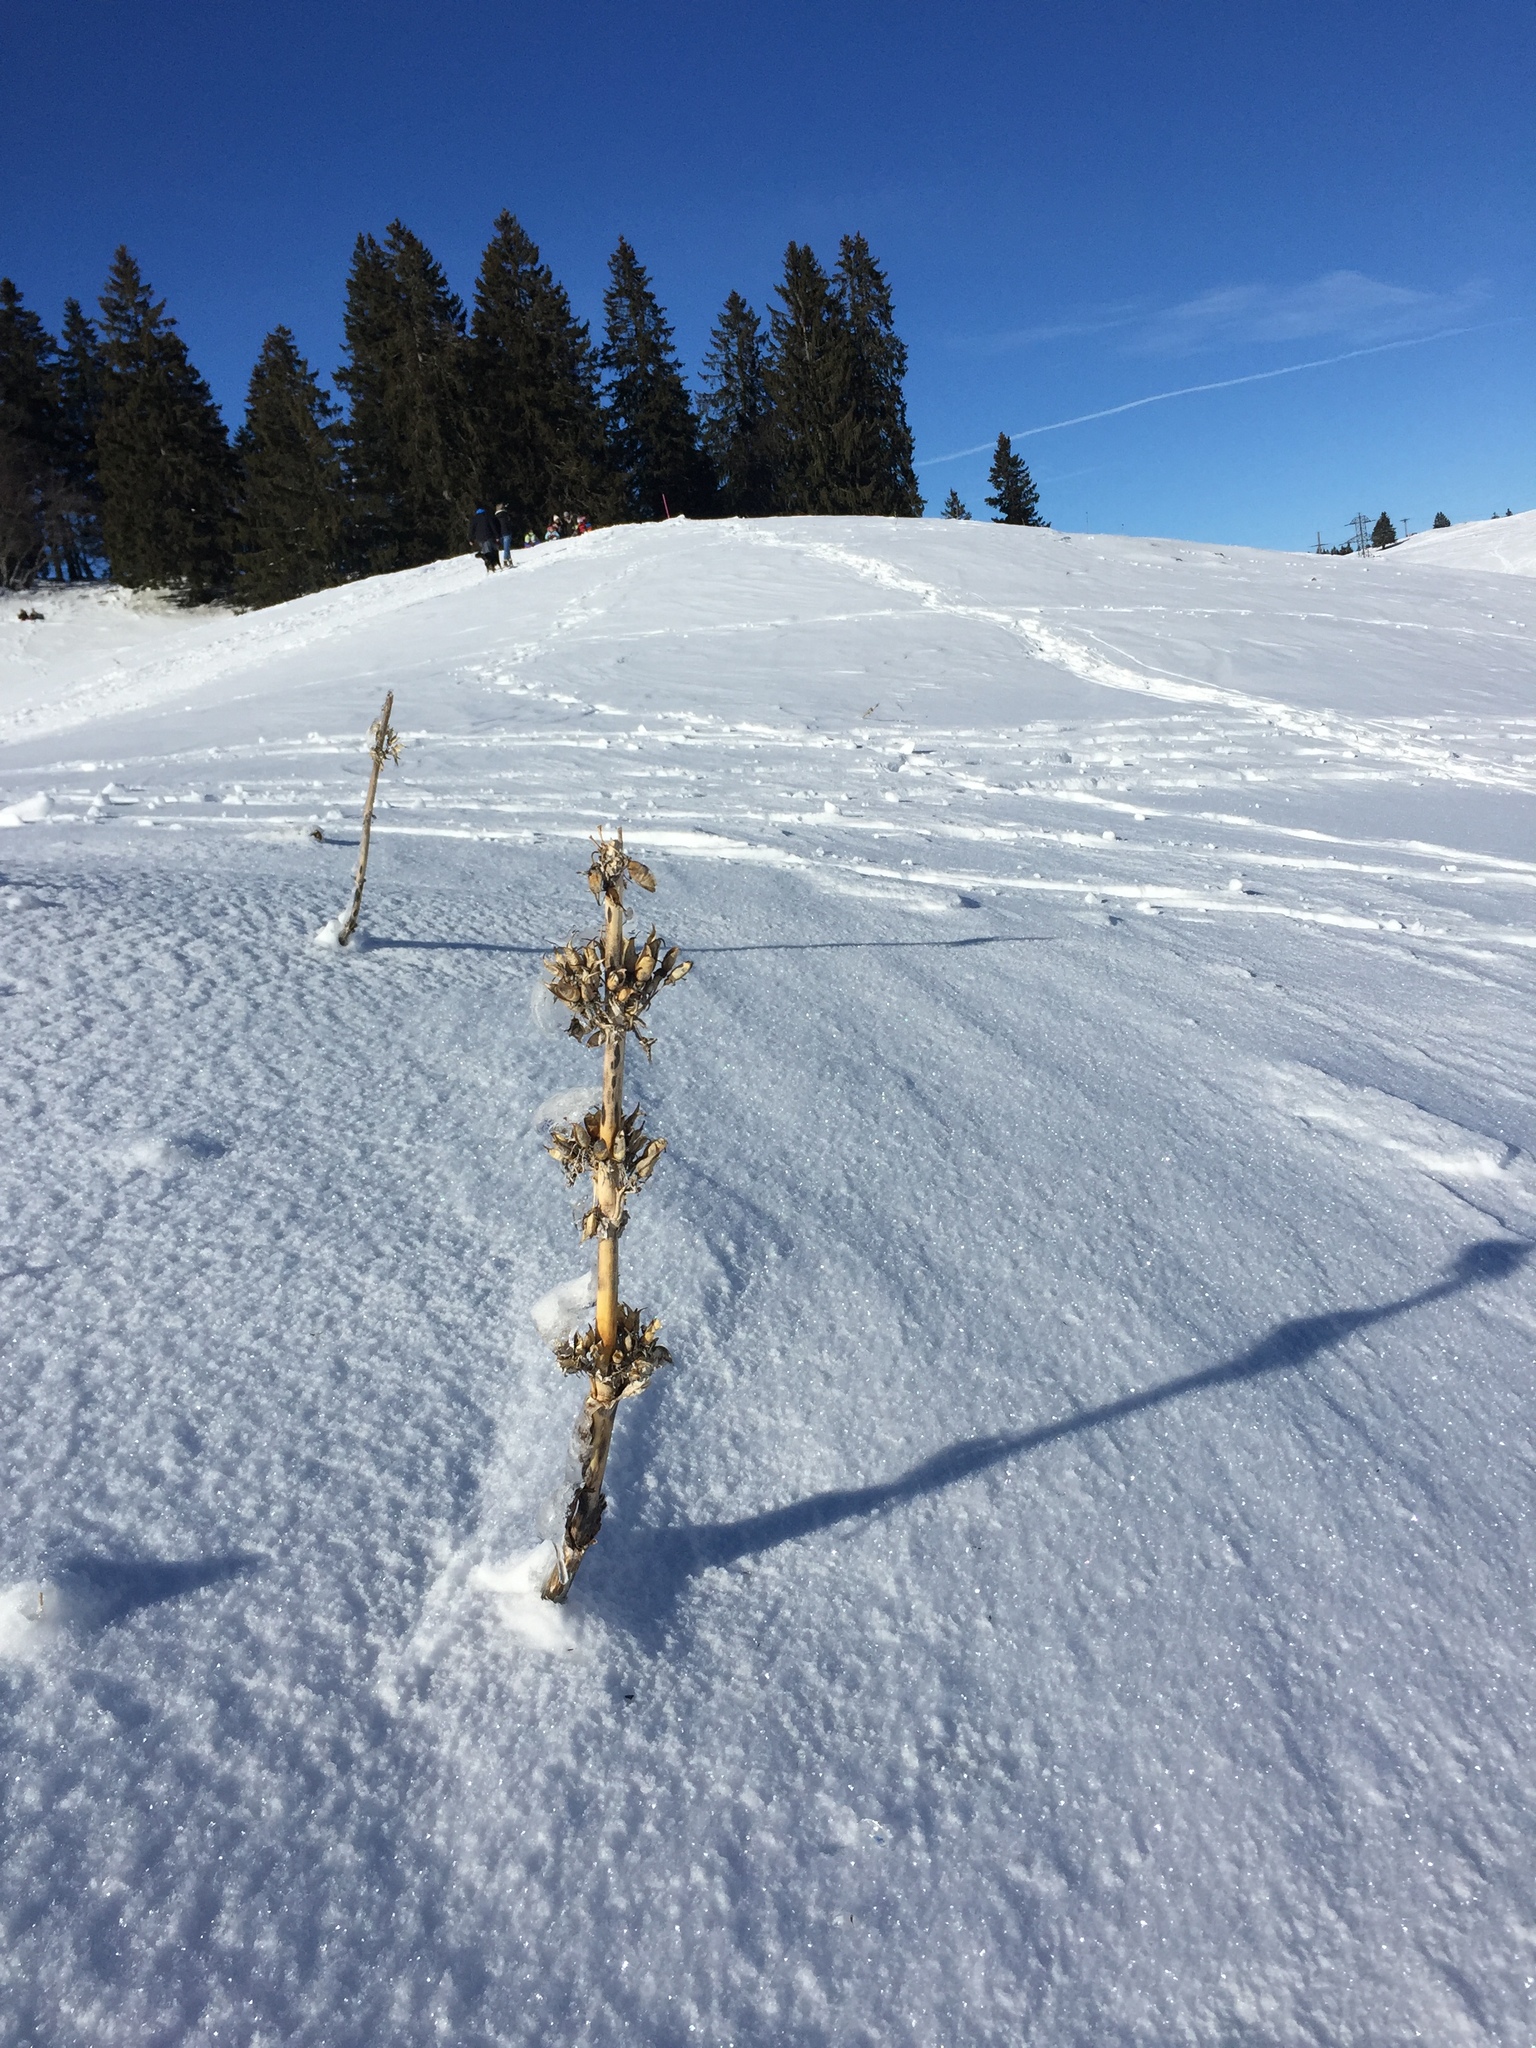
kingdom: Plantae
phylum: Tracheophyta
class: Magnoliopsida
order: Gentianales
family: Gentianaceae
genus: Gentiana
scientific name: Gentiana lutea
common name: Great yellow gentian
